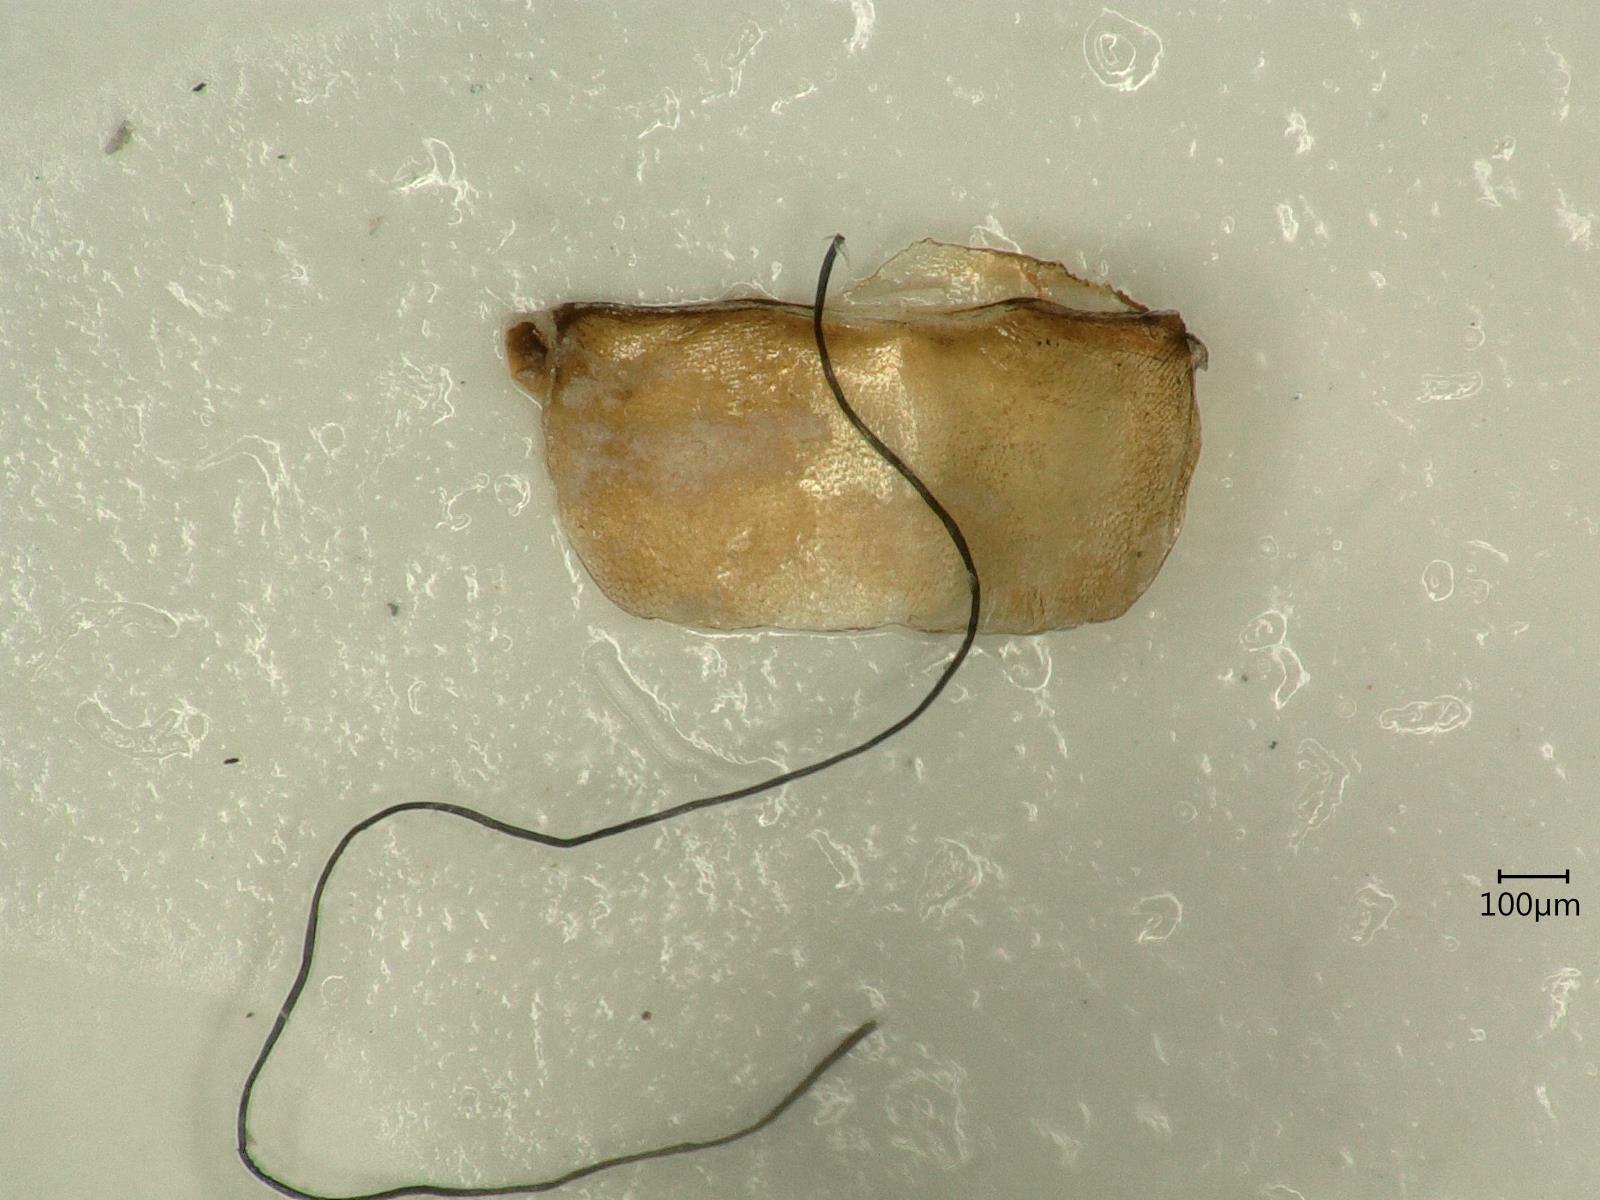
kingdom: Animalia
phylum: Arthropoda
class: Insecta
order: Hemiptera
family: Cicadellidae
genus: Euscelis
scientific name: Euscelis incisa
